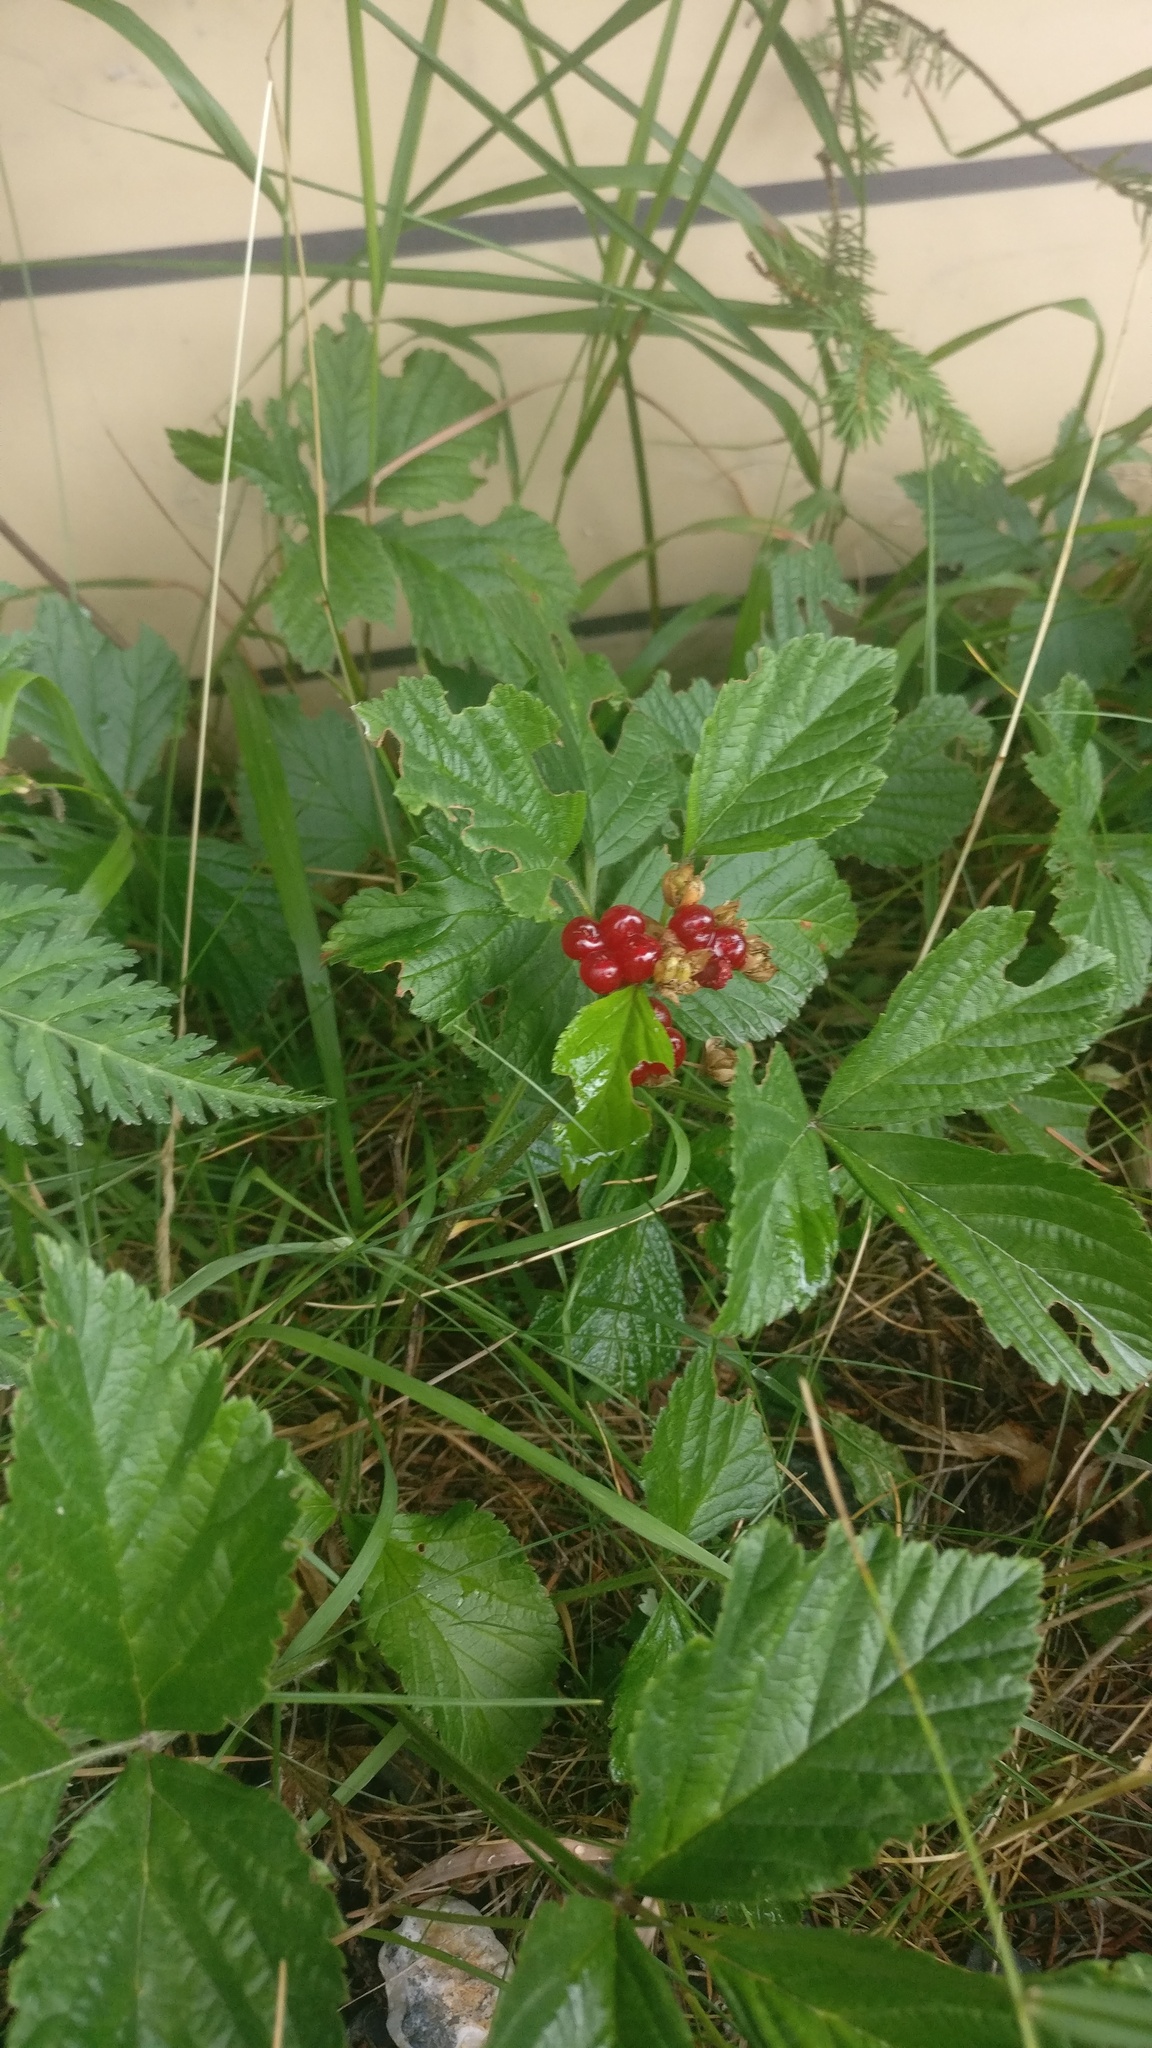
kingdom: Plantae
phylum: Tracheophyta
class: Magnoliopsida
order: Rosales
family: Rosaceae
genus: Rubus
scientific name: Rubus saxatilis
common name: Stone bramble
